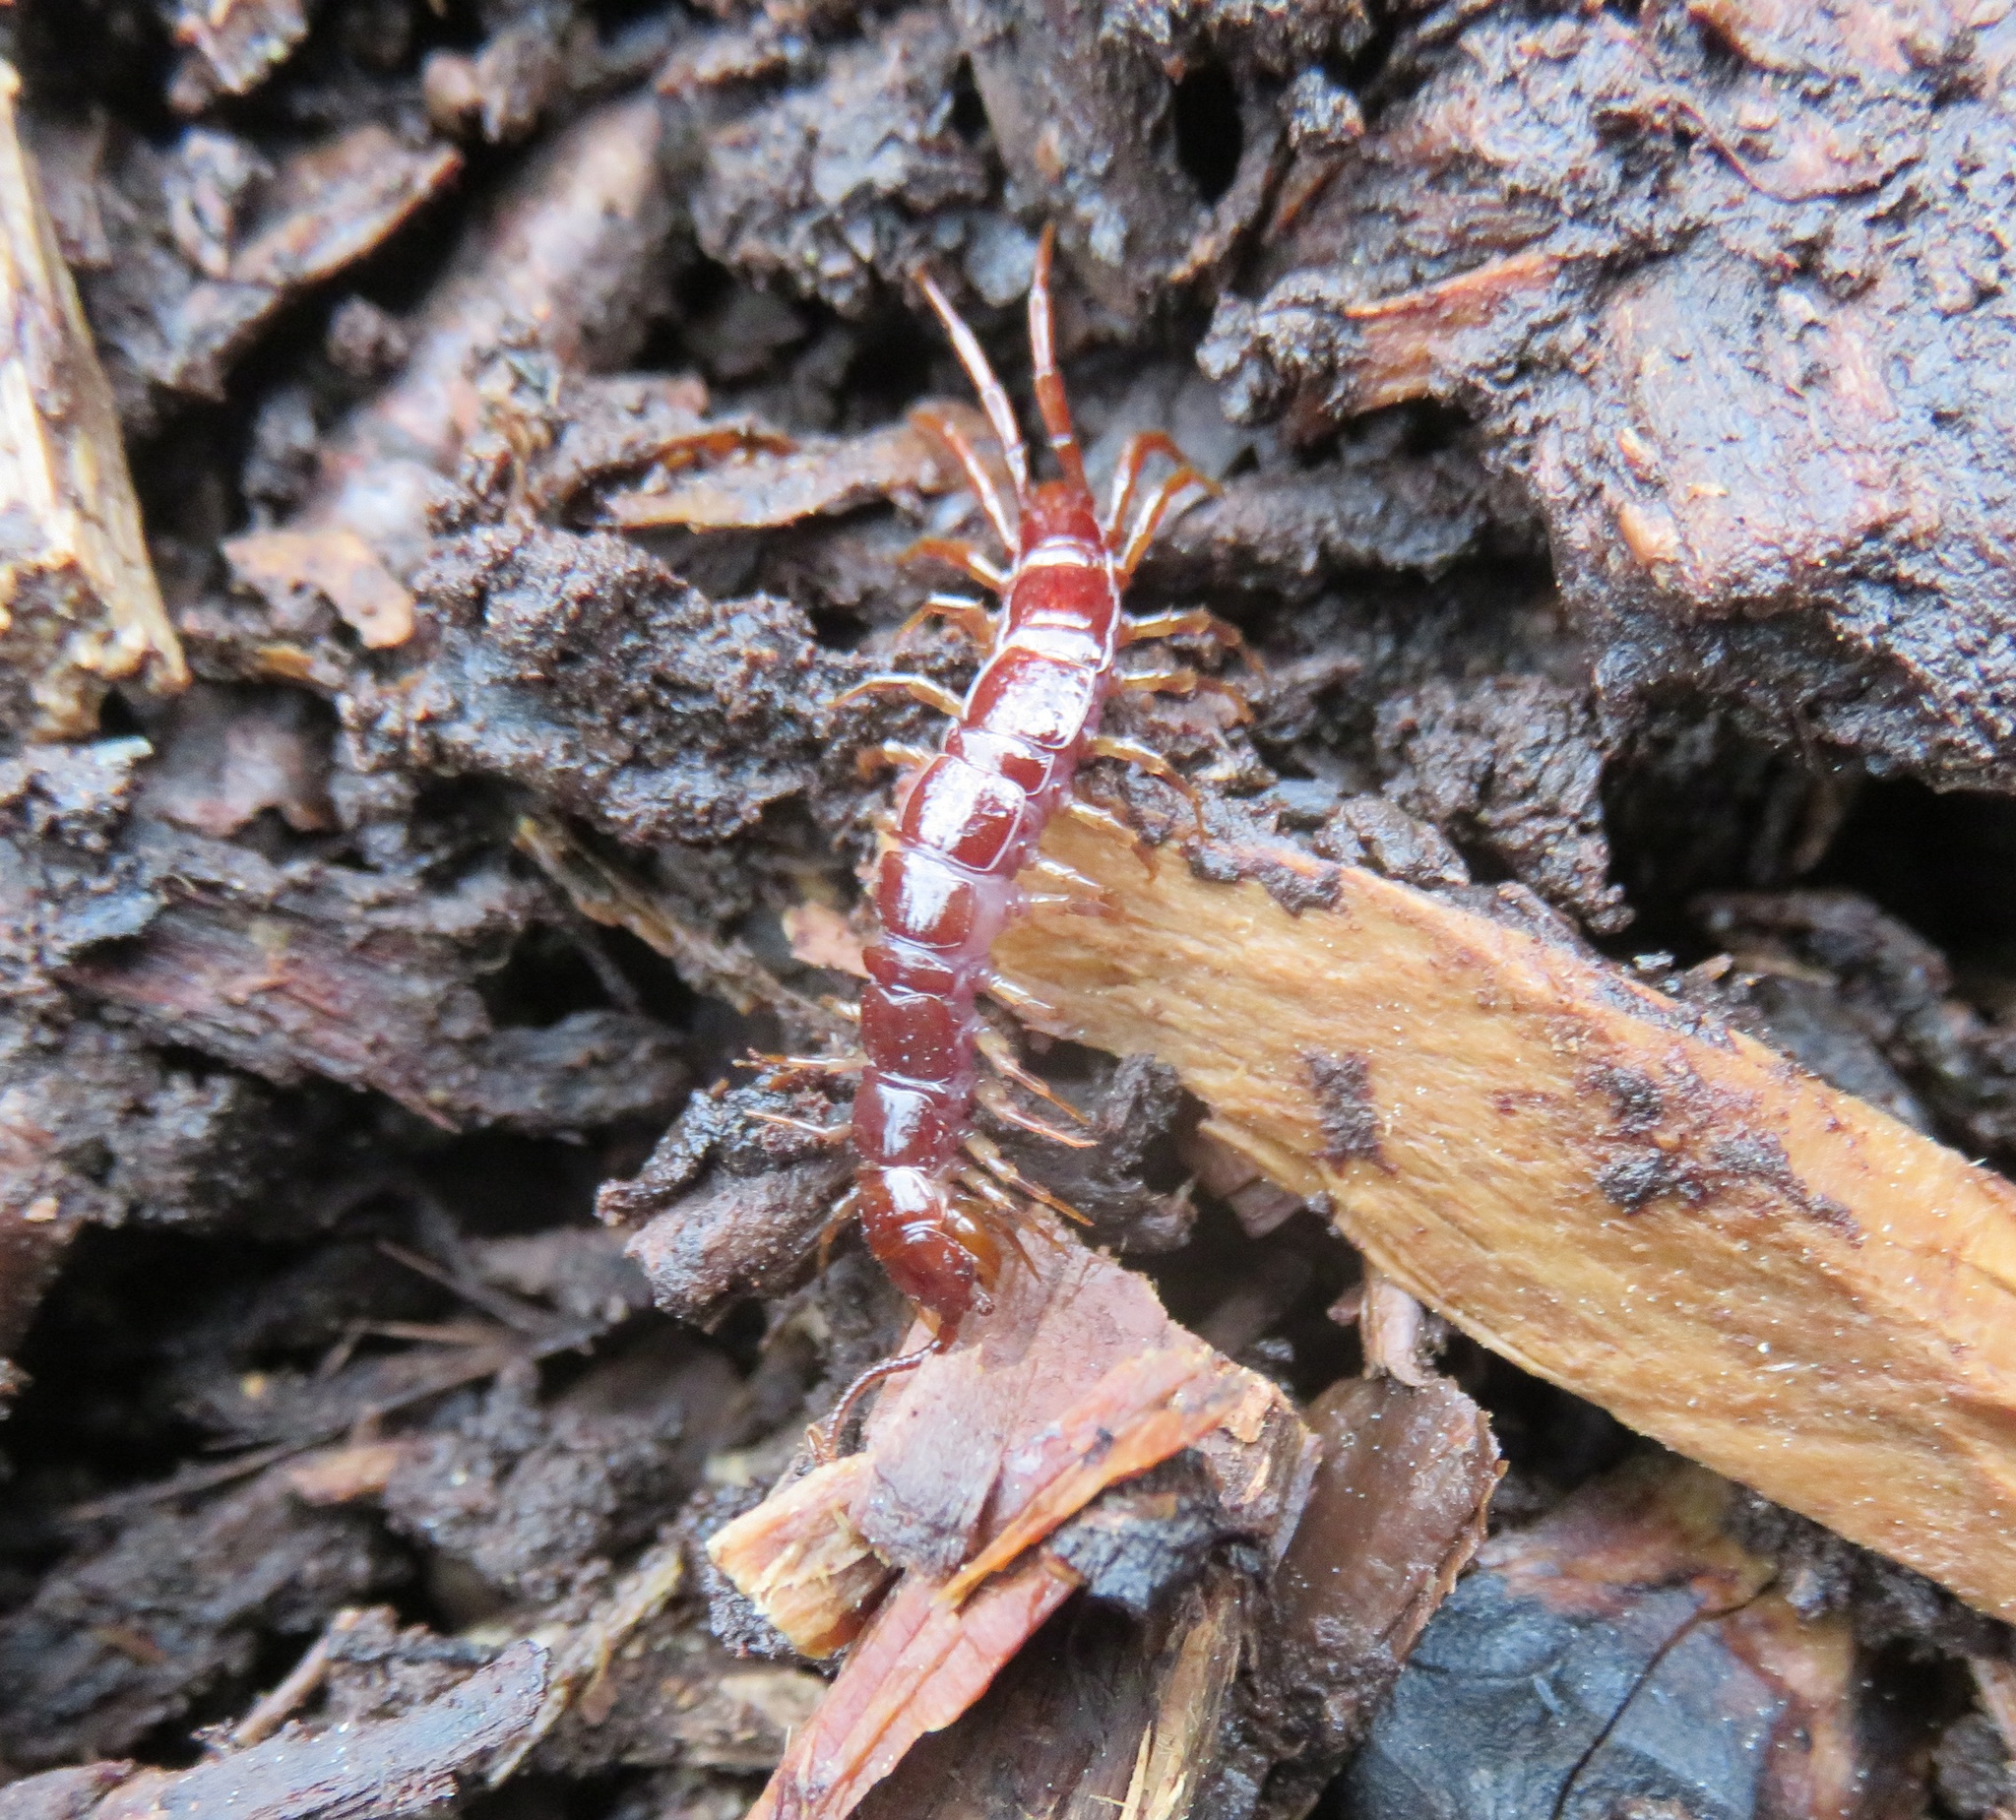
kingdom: Animalia
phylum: Arthropoda
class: Chilopoda
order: Lithobiomorpha
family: Lithobiidae
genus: Lithobius
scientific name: Lithobius forficatus
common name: Centipede
